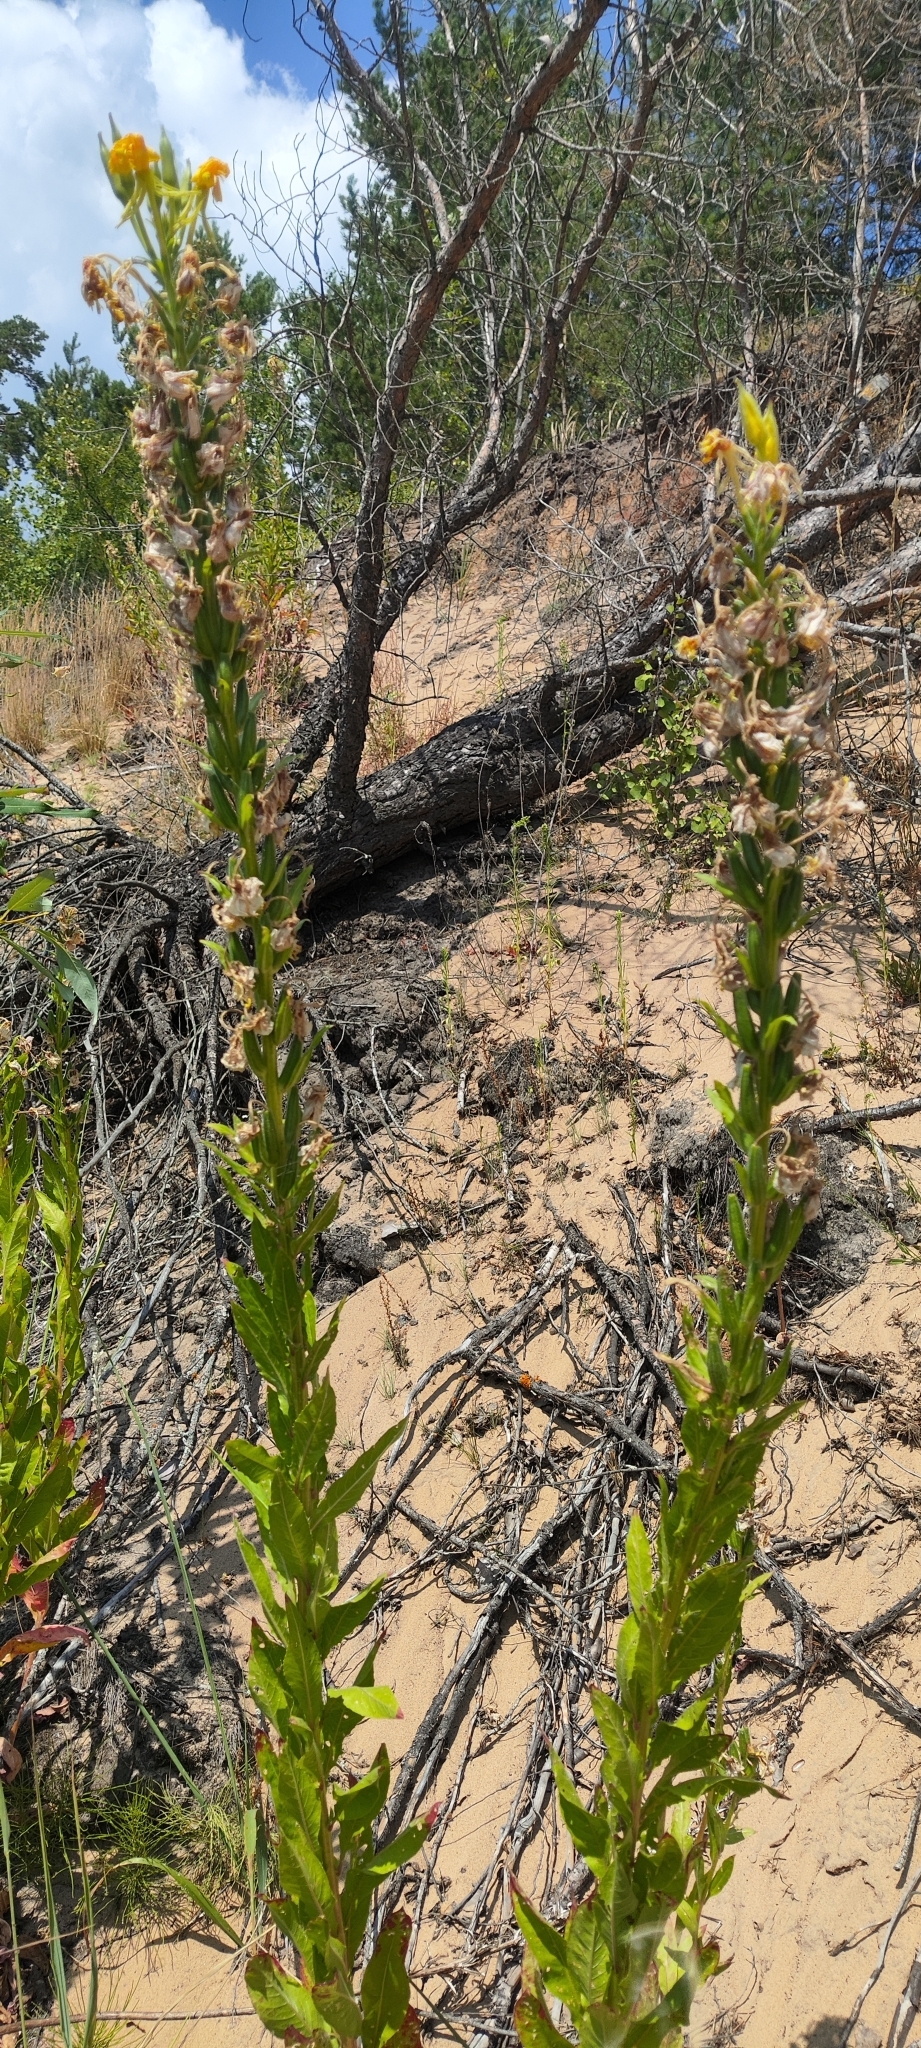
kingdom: Plantae
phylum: Tracheophyta
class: Magnoliopsida
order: Myrtales
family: Onagraceae
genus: Oenothera
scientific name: Oenothera biennis
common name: Common evening-primrose
